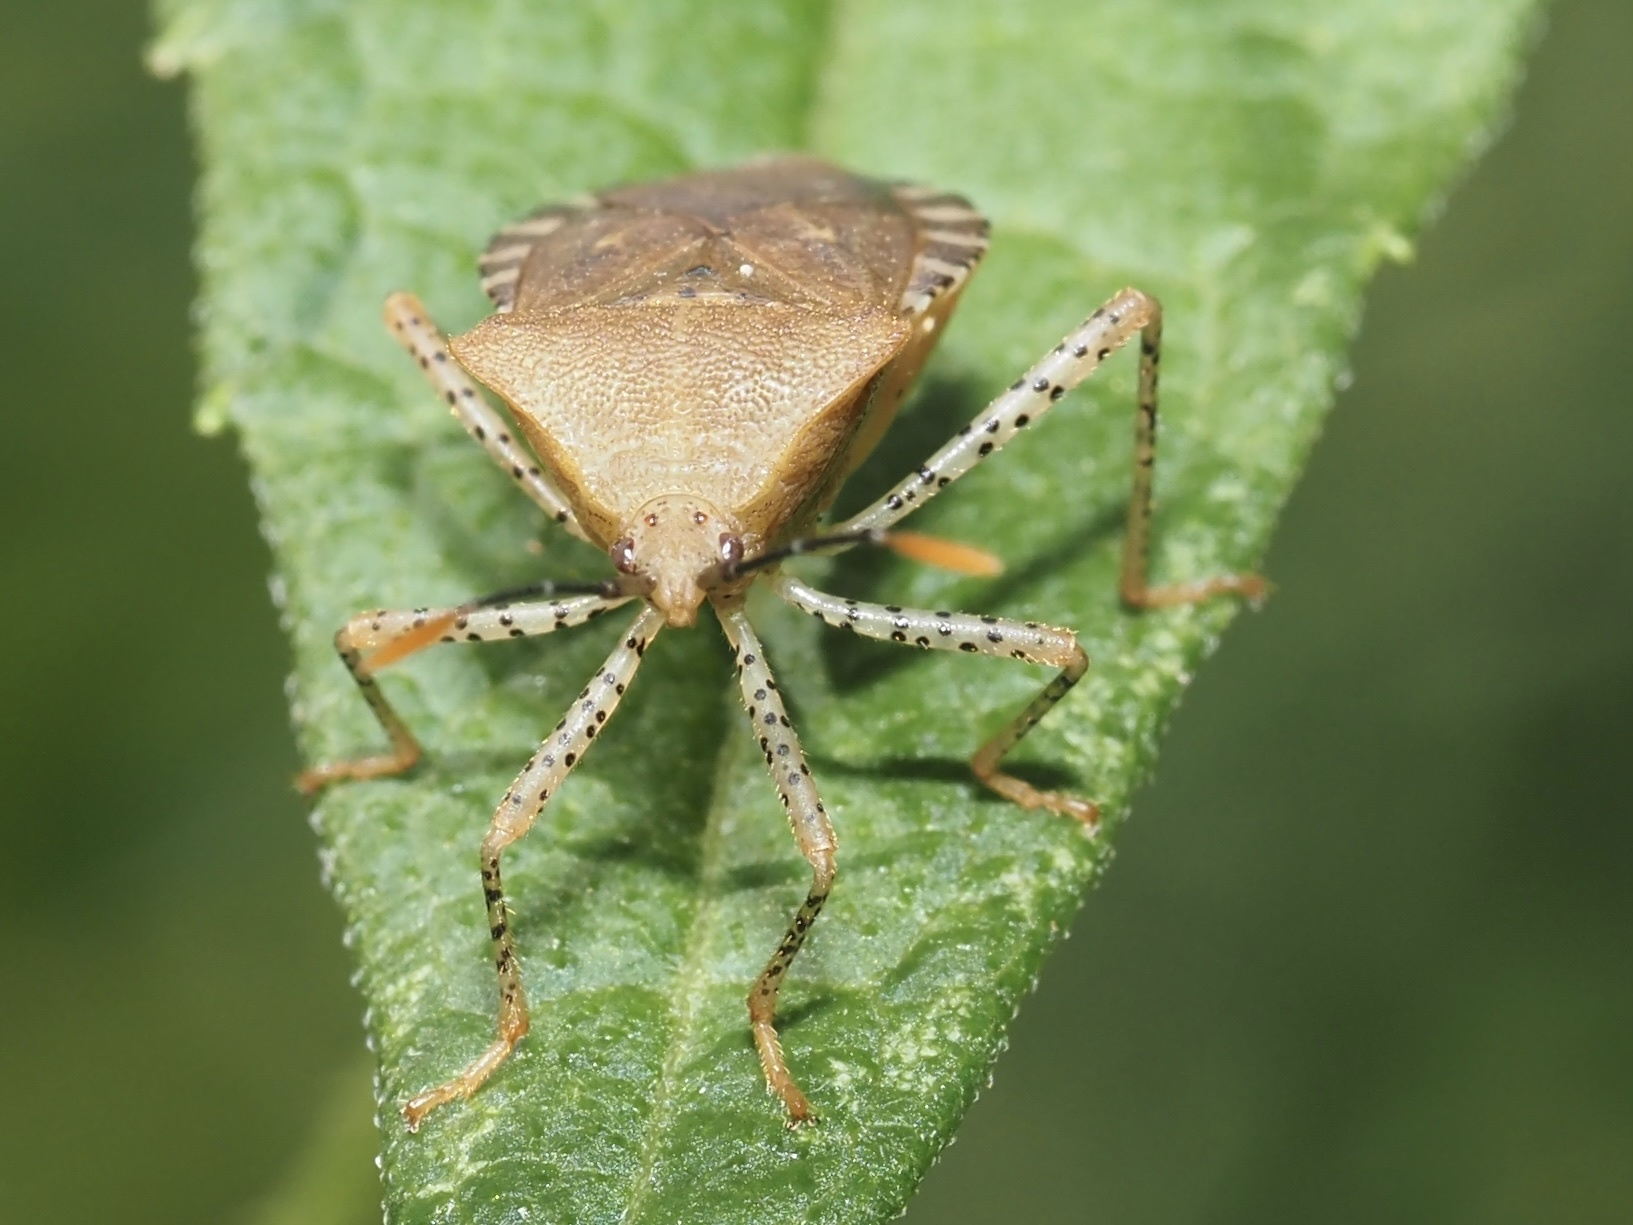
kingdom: Animalia
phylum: Arthropoda
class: Insecta
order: Hemiptera
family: Coreidae
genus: Anasa
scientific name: Anasa repetita
